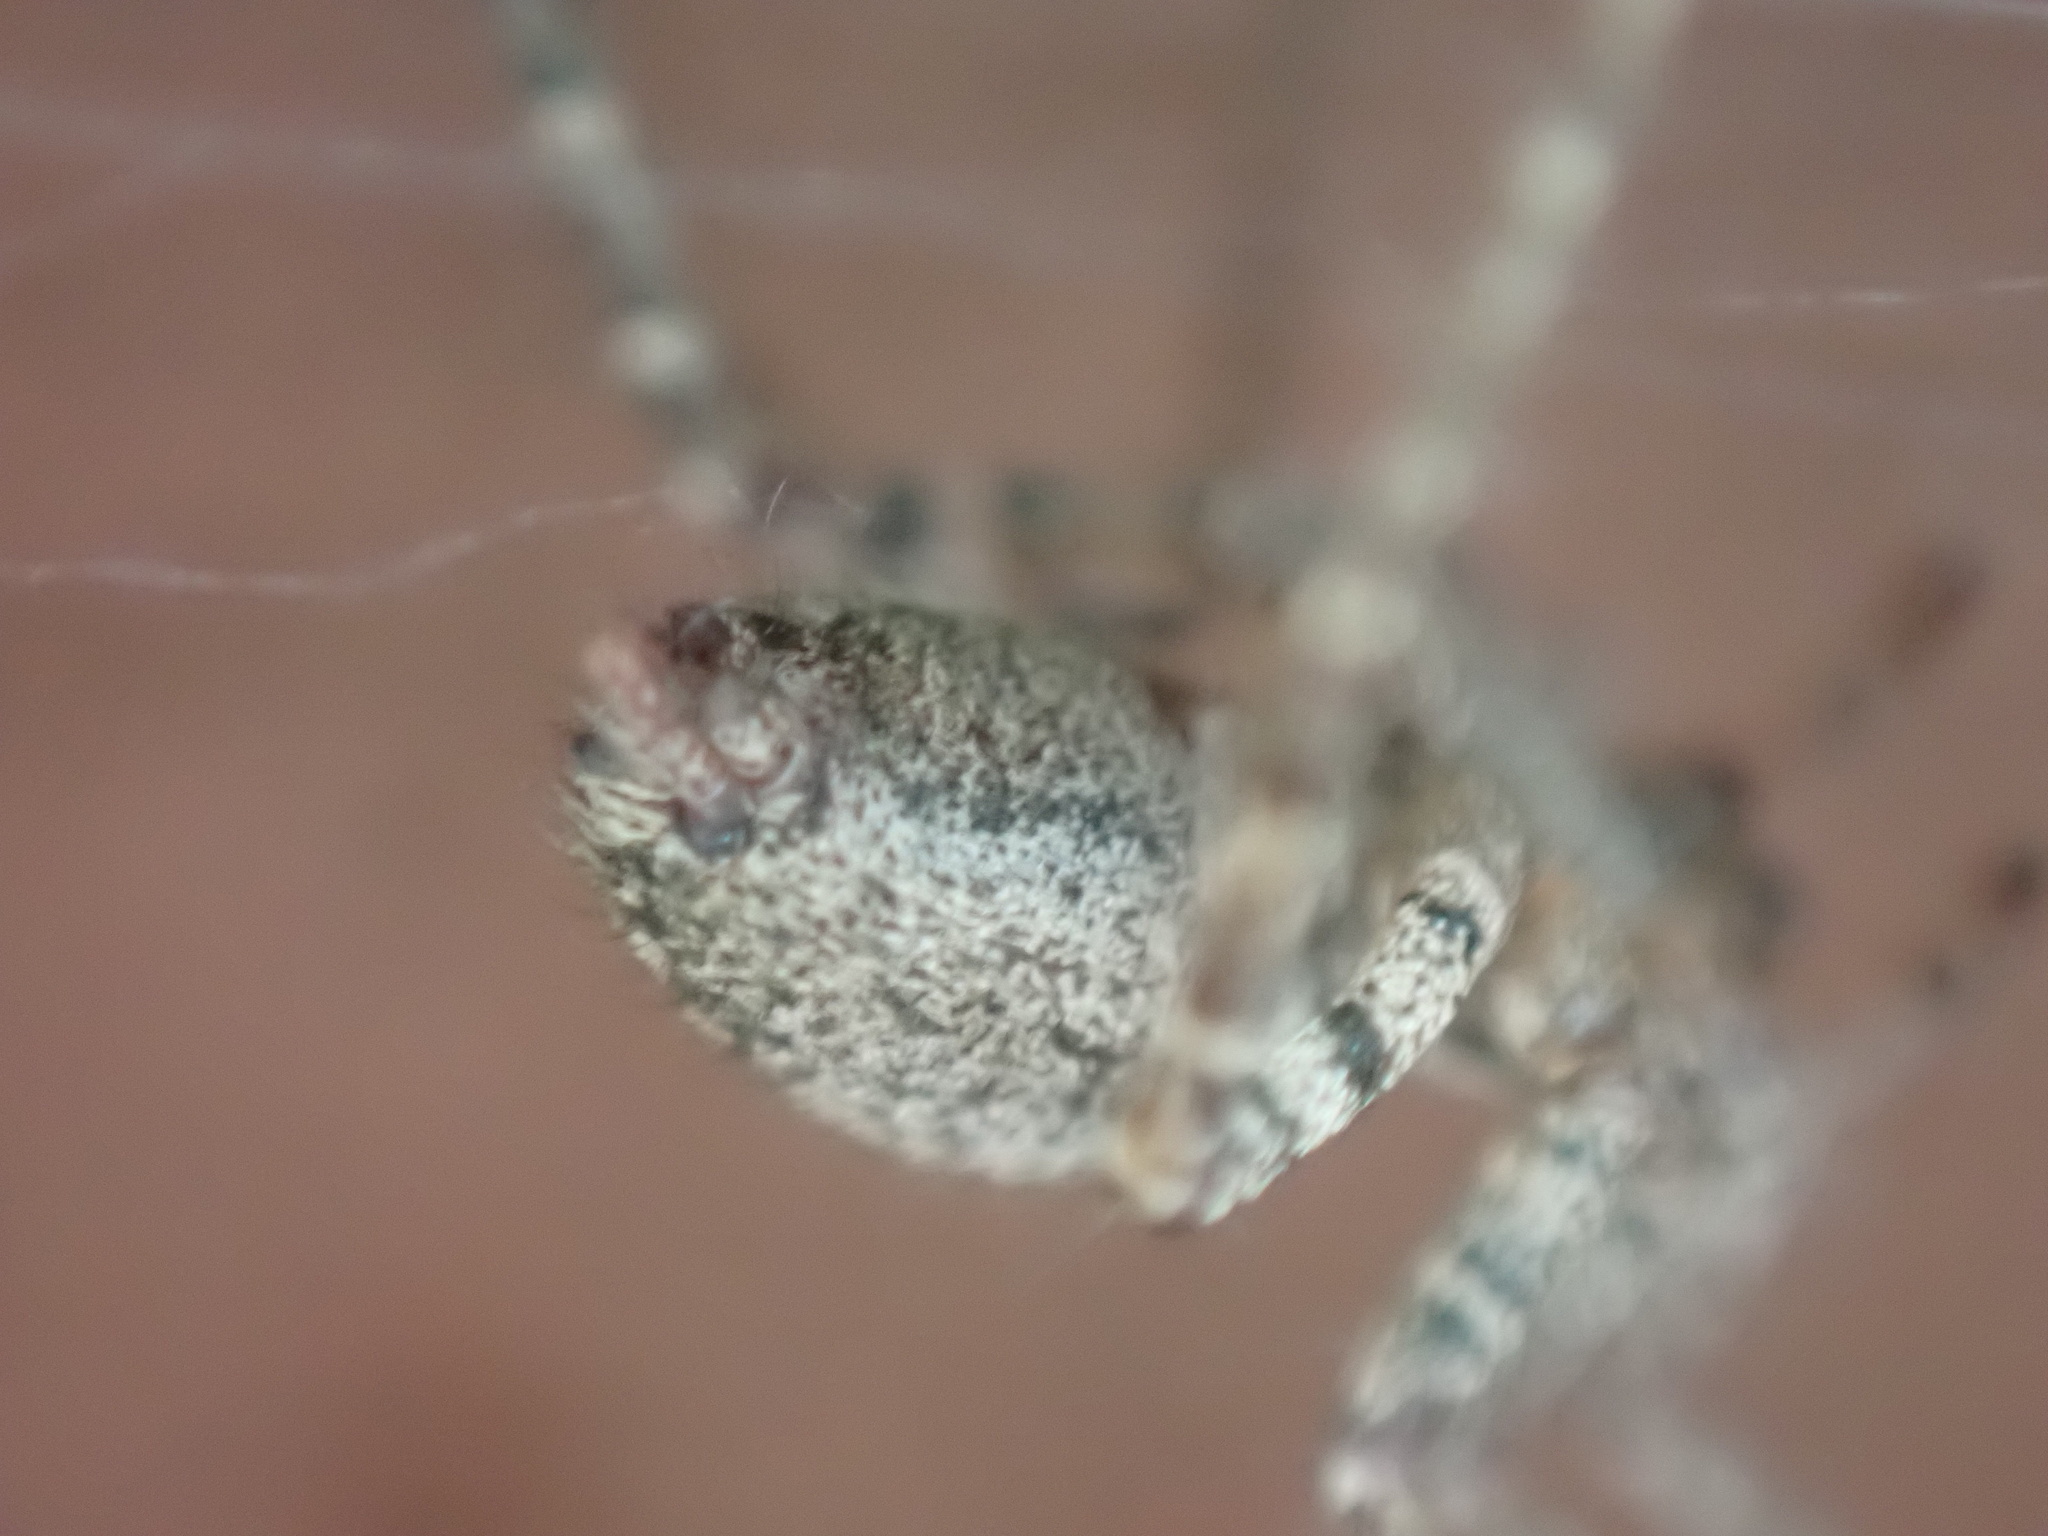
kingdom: Animalia
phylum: Arthropoda
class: Arachnida
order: Araneae
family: Agelenidae
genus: Barronopsis
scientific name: Barronopsis texana
